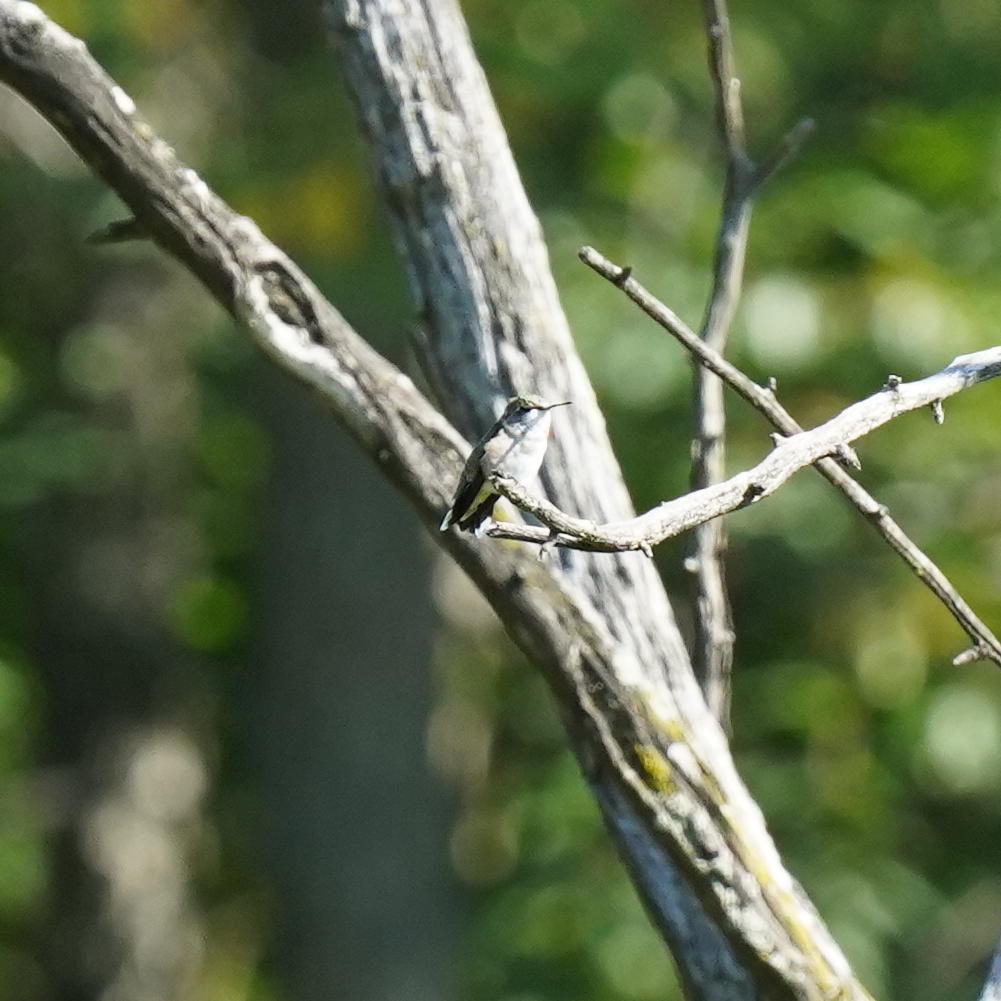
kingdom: Animalia
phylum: Chordata
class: Aves
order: Apodiformes
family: Trochilidae
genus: Archilochus
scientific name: Archilochus colubris
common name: Ruby-throated hummingbird
